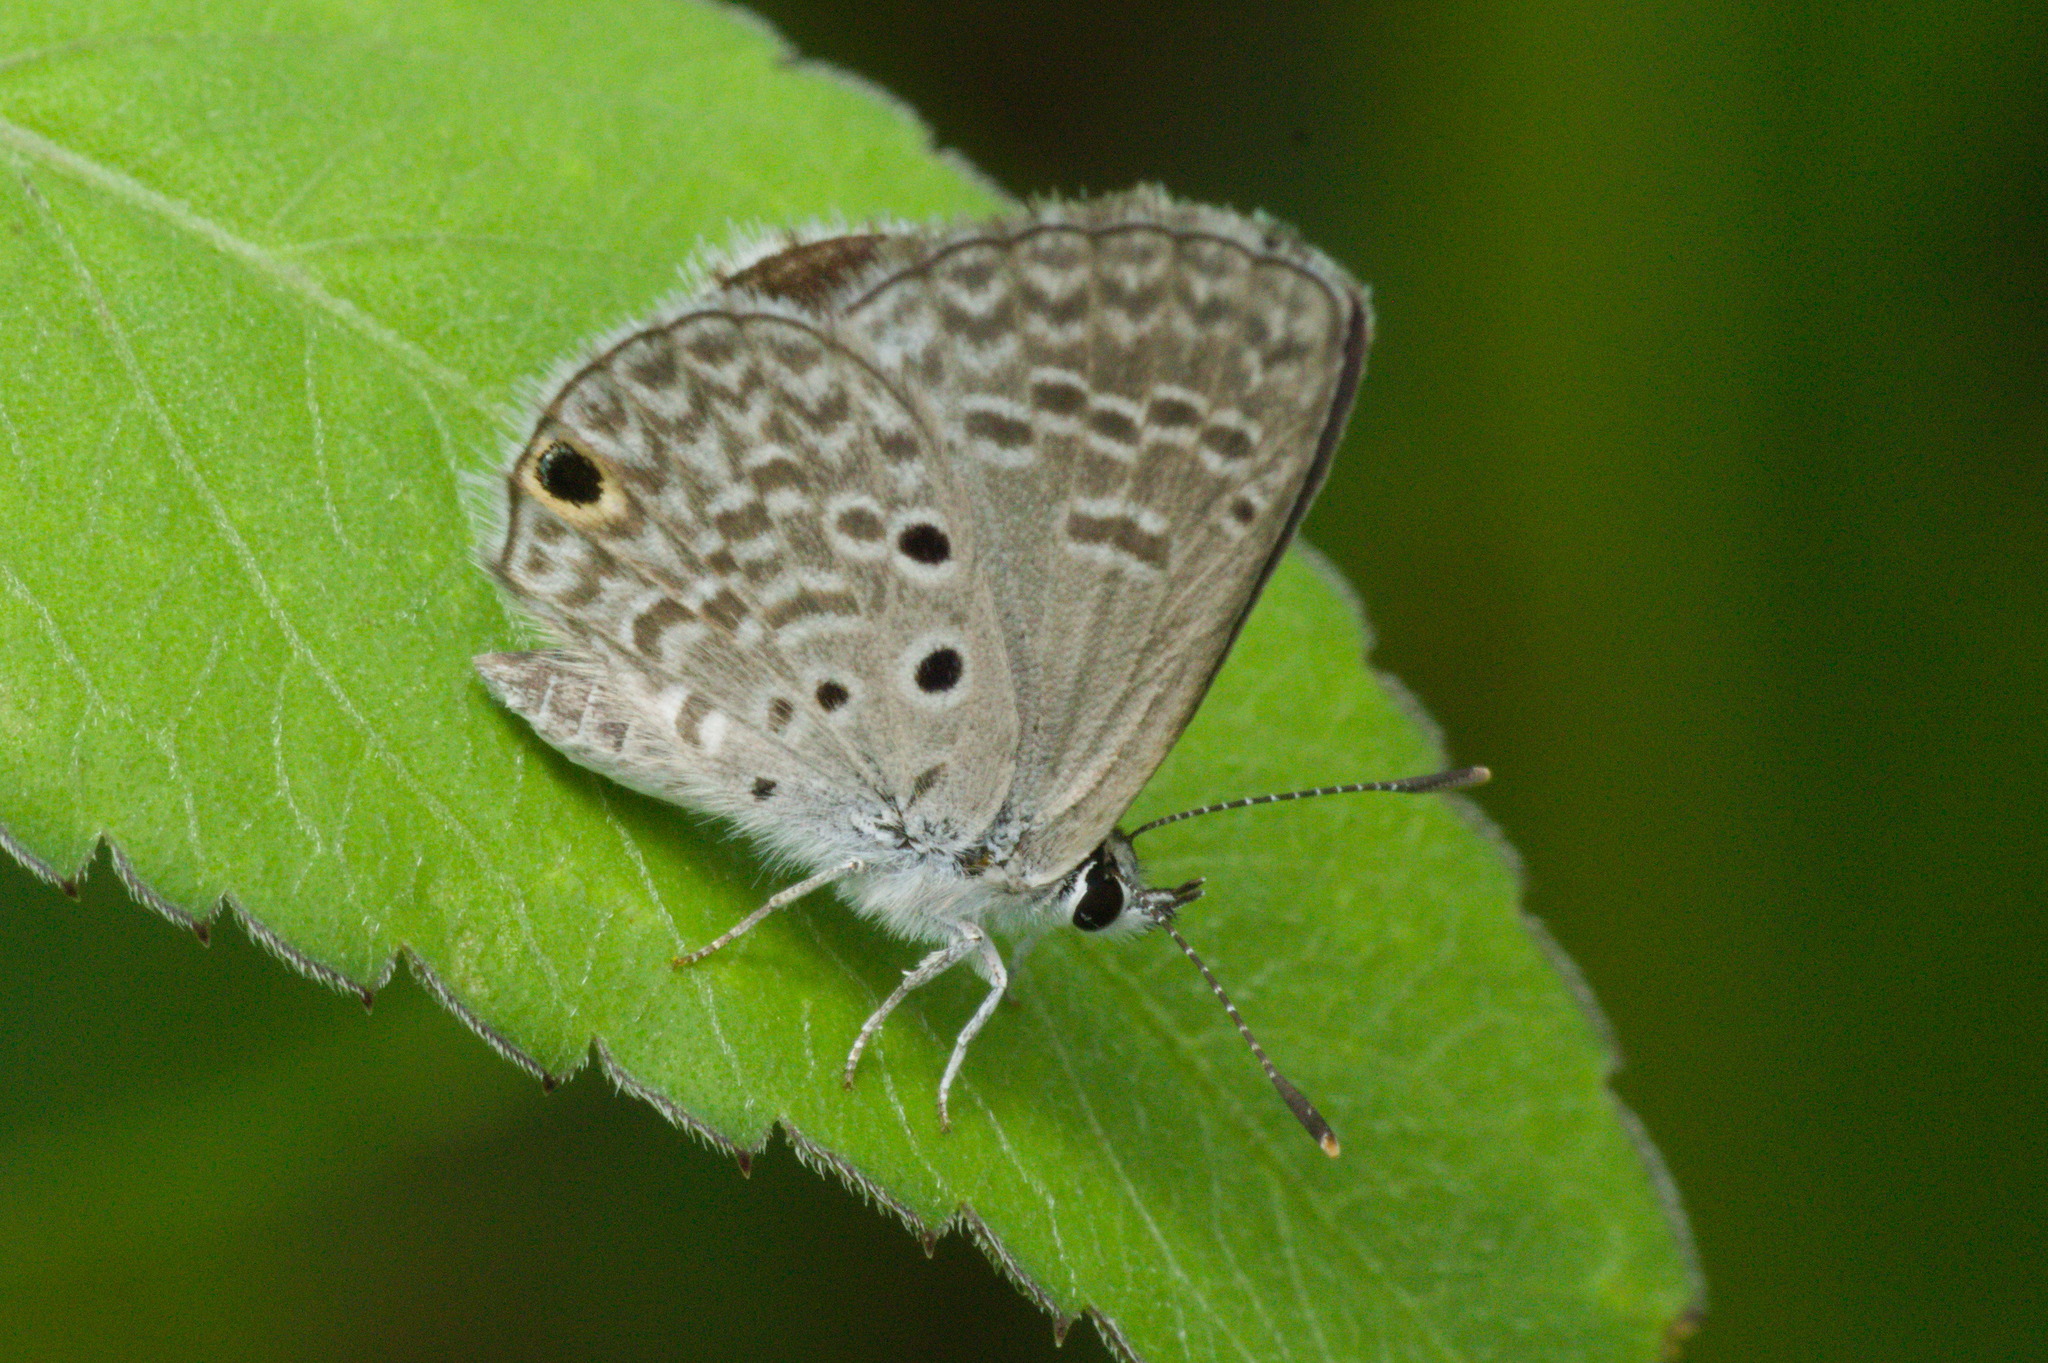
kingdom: Animalia
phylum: Arthropoda
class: Insecta
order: Lepidoptera
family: Lycaenidae
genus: Hemiargus
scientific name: Hemiargus hanno
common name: Common blue
